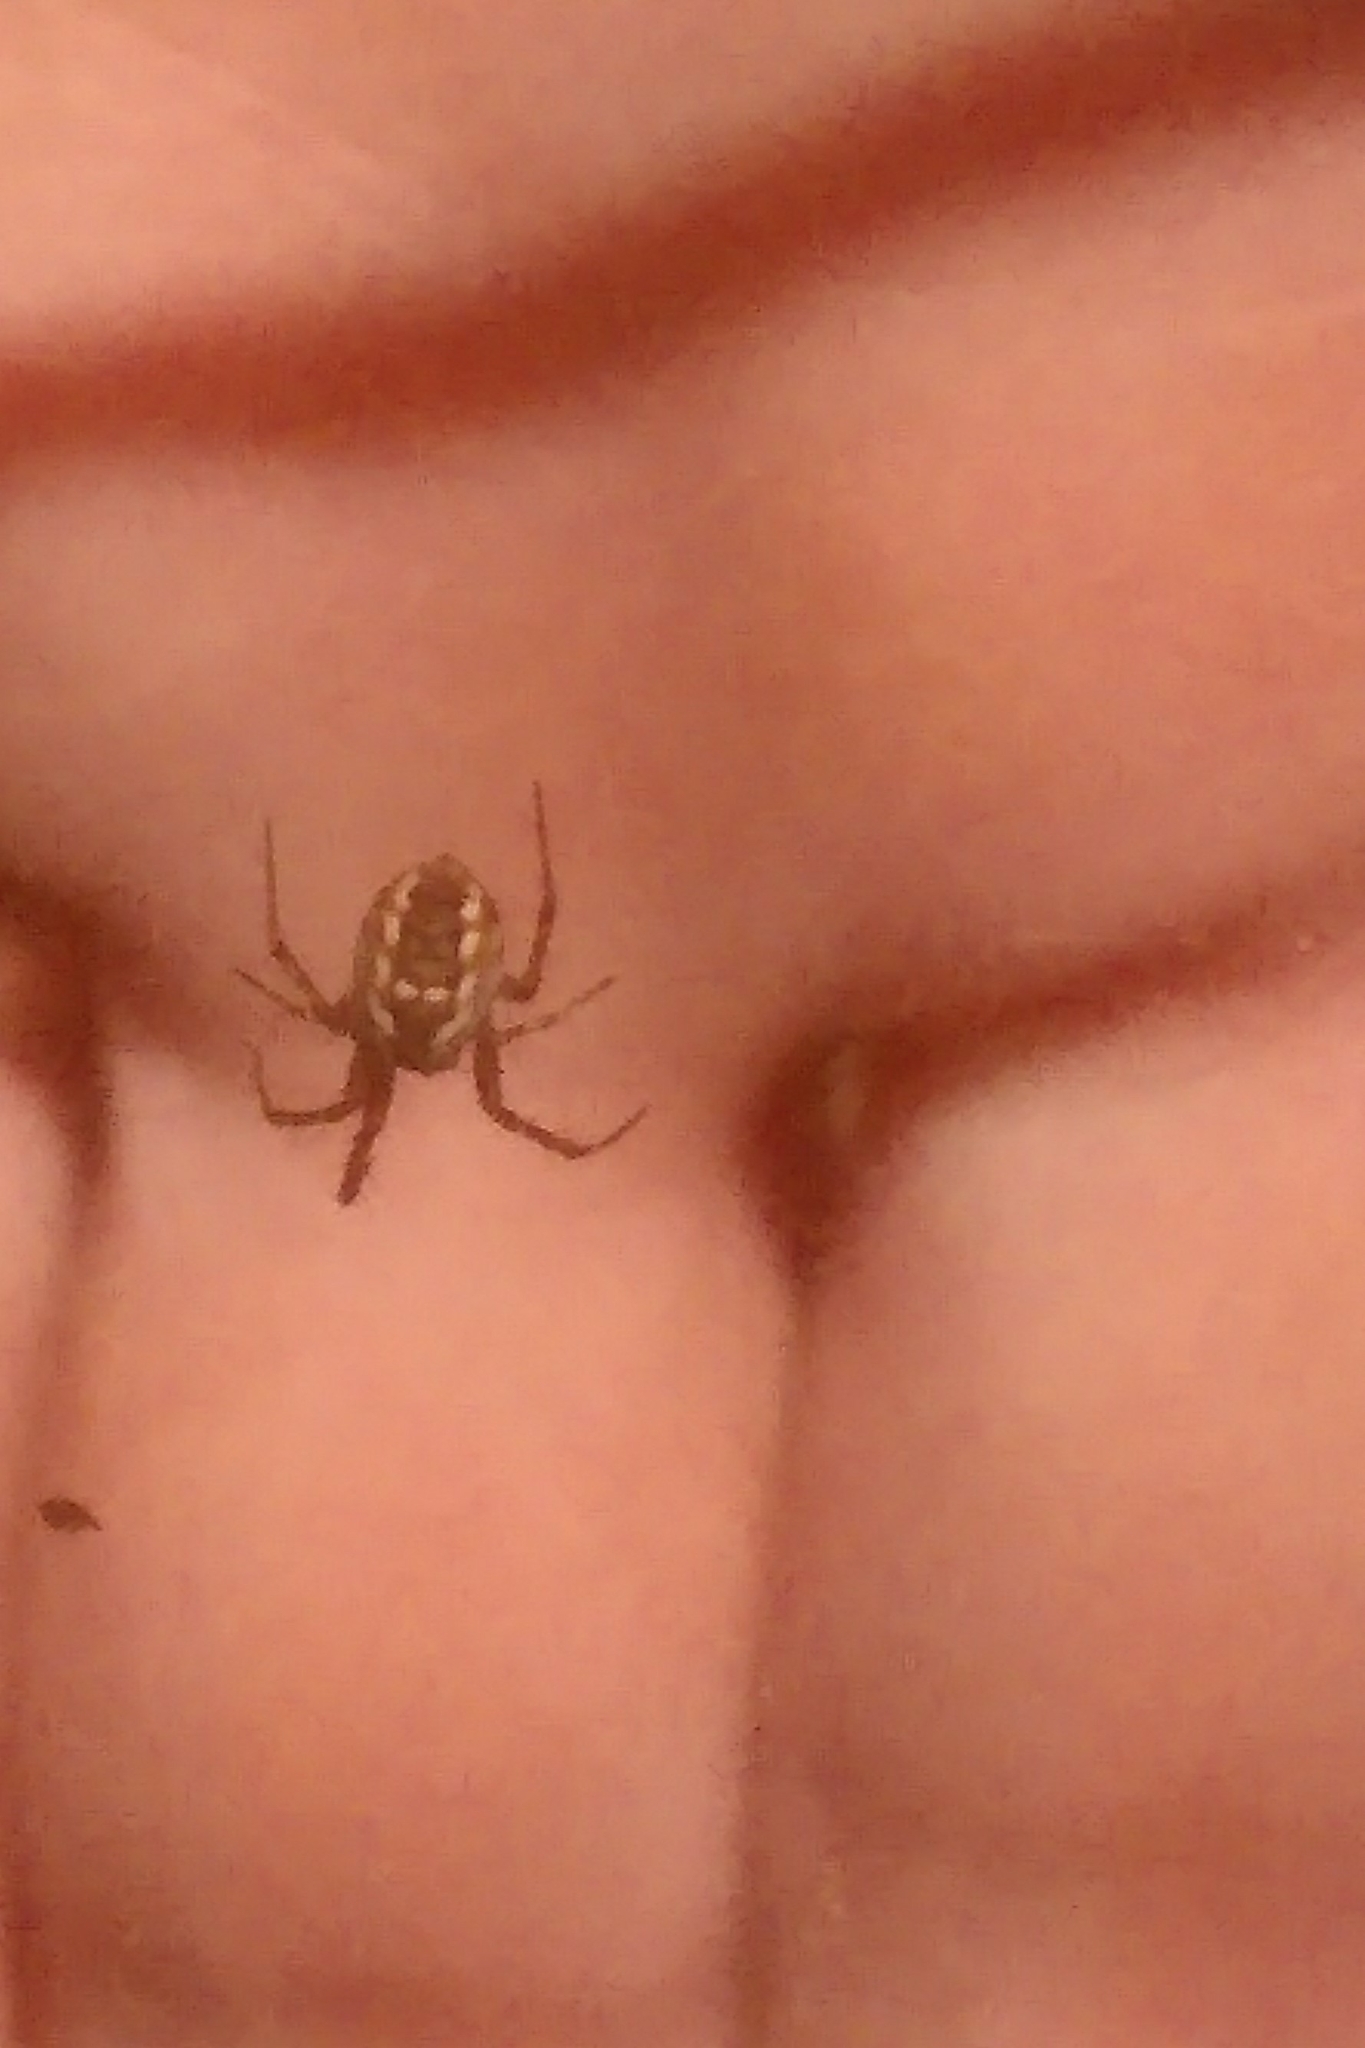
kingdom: Animalia
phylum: Arthropoda
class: Arachnida
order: Araneae
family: Araneidae
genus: Mangora
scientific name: Mangora placida
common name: Tuft-legged orbweaver
